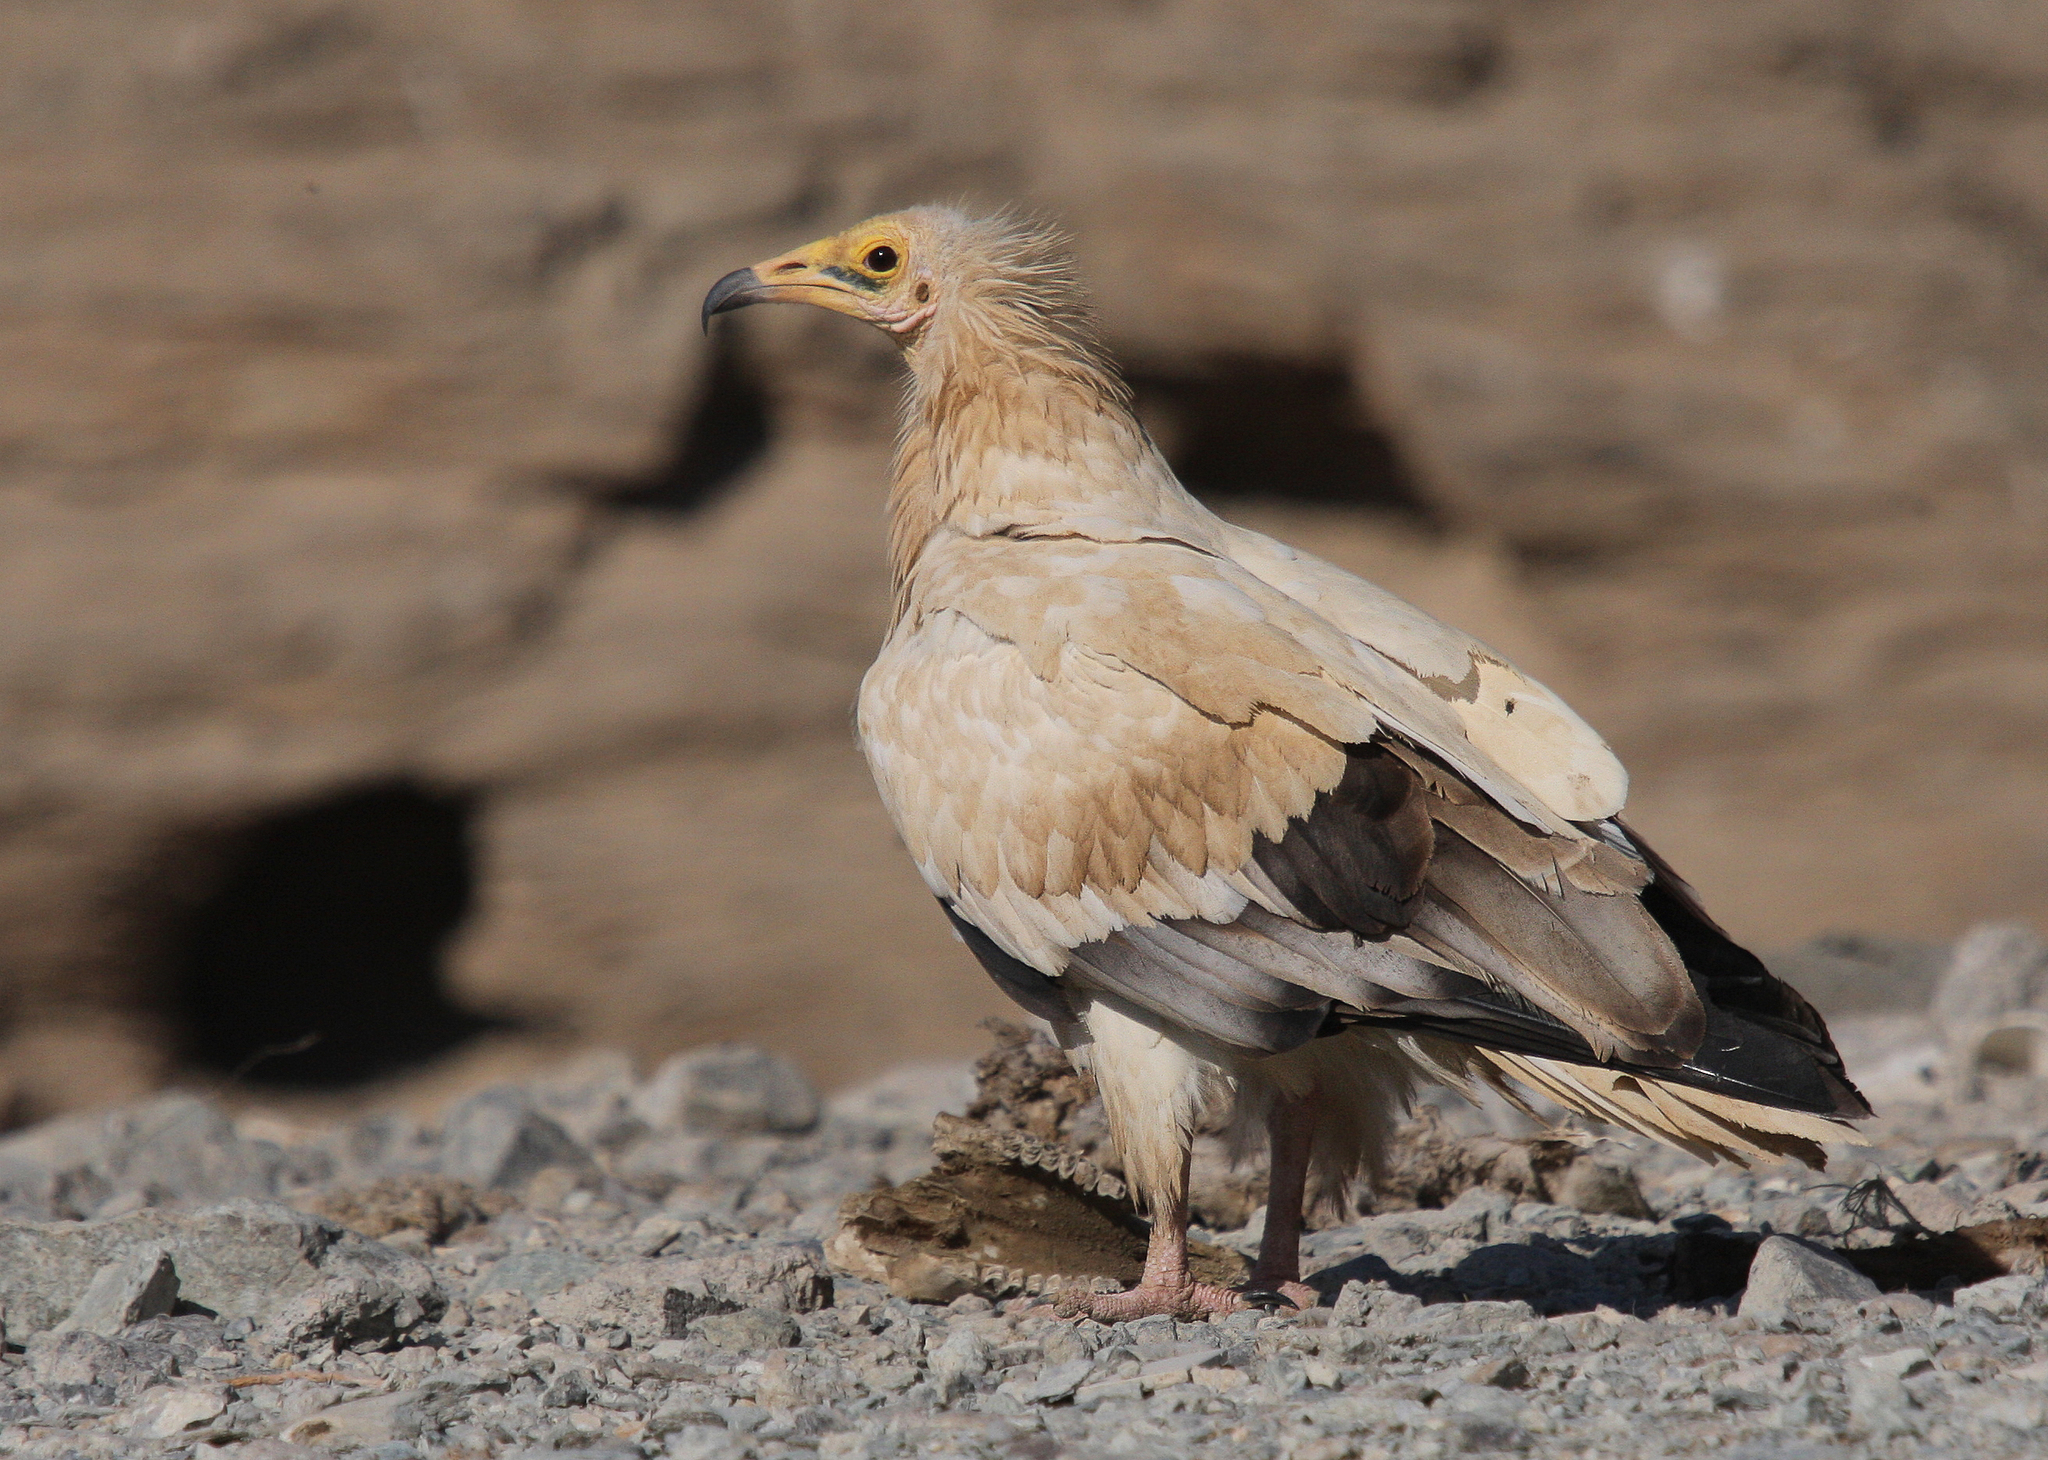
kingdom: Animalia
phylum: Chordata
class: Aves
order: Accipitriformes
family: Accipitridae
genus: Neophron
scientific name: Neophron percnopterus
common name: Egyptian vulture
